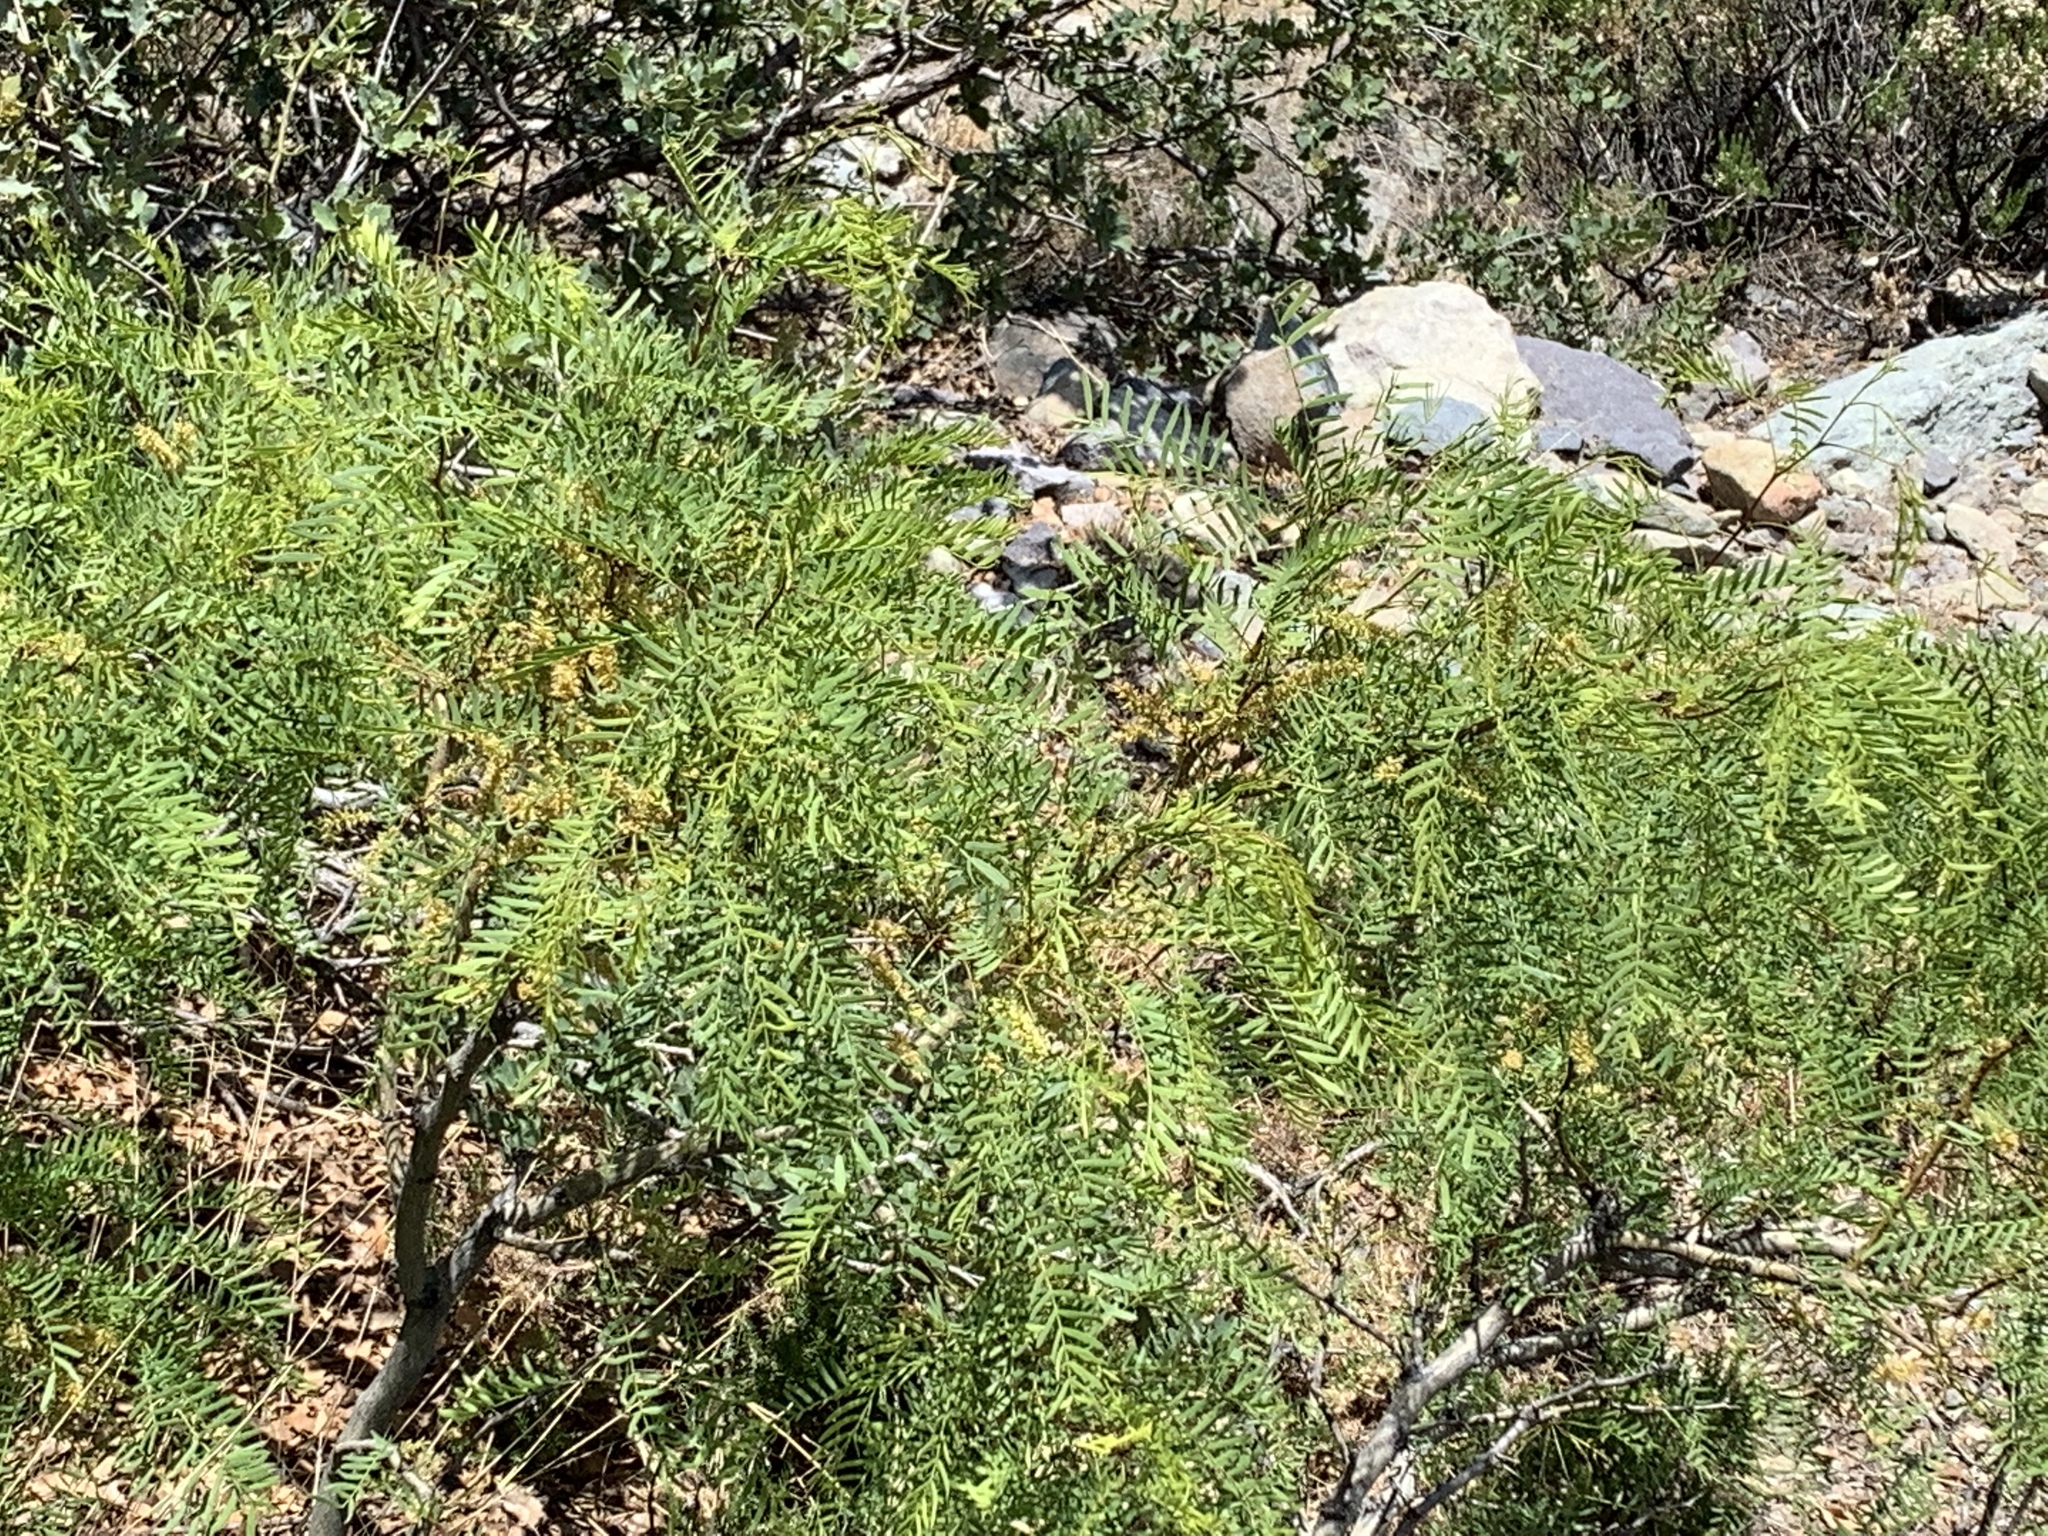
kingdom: Plantae
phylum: Tracheophyta
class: Magnoliopsida
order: Fabales
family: Fabaceae
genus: Prosopis
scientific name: Prosopis glandulosa
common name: Honey mesquite
